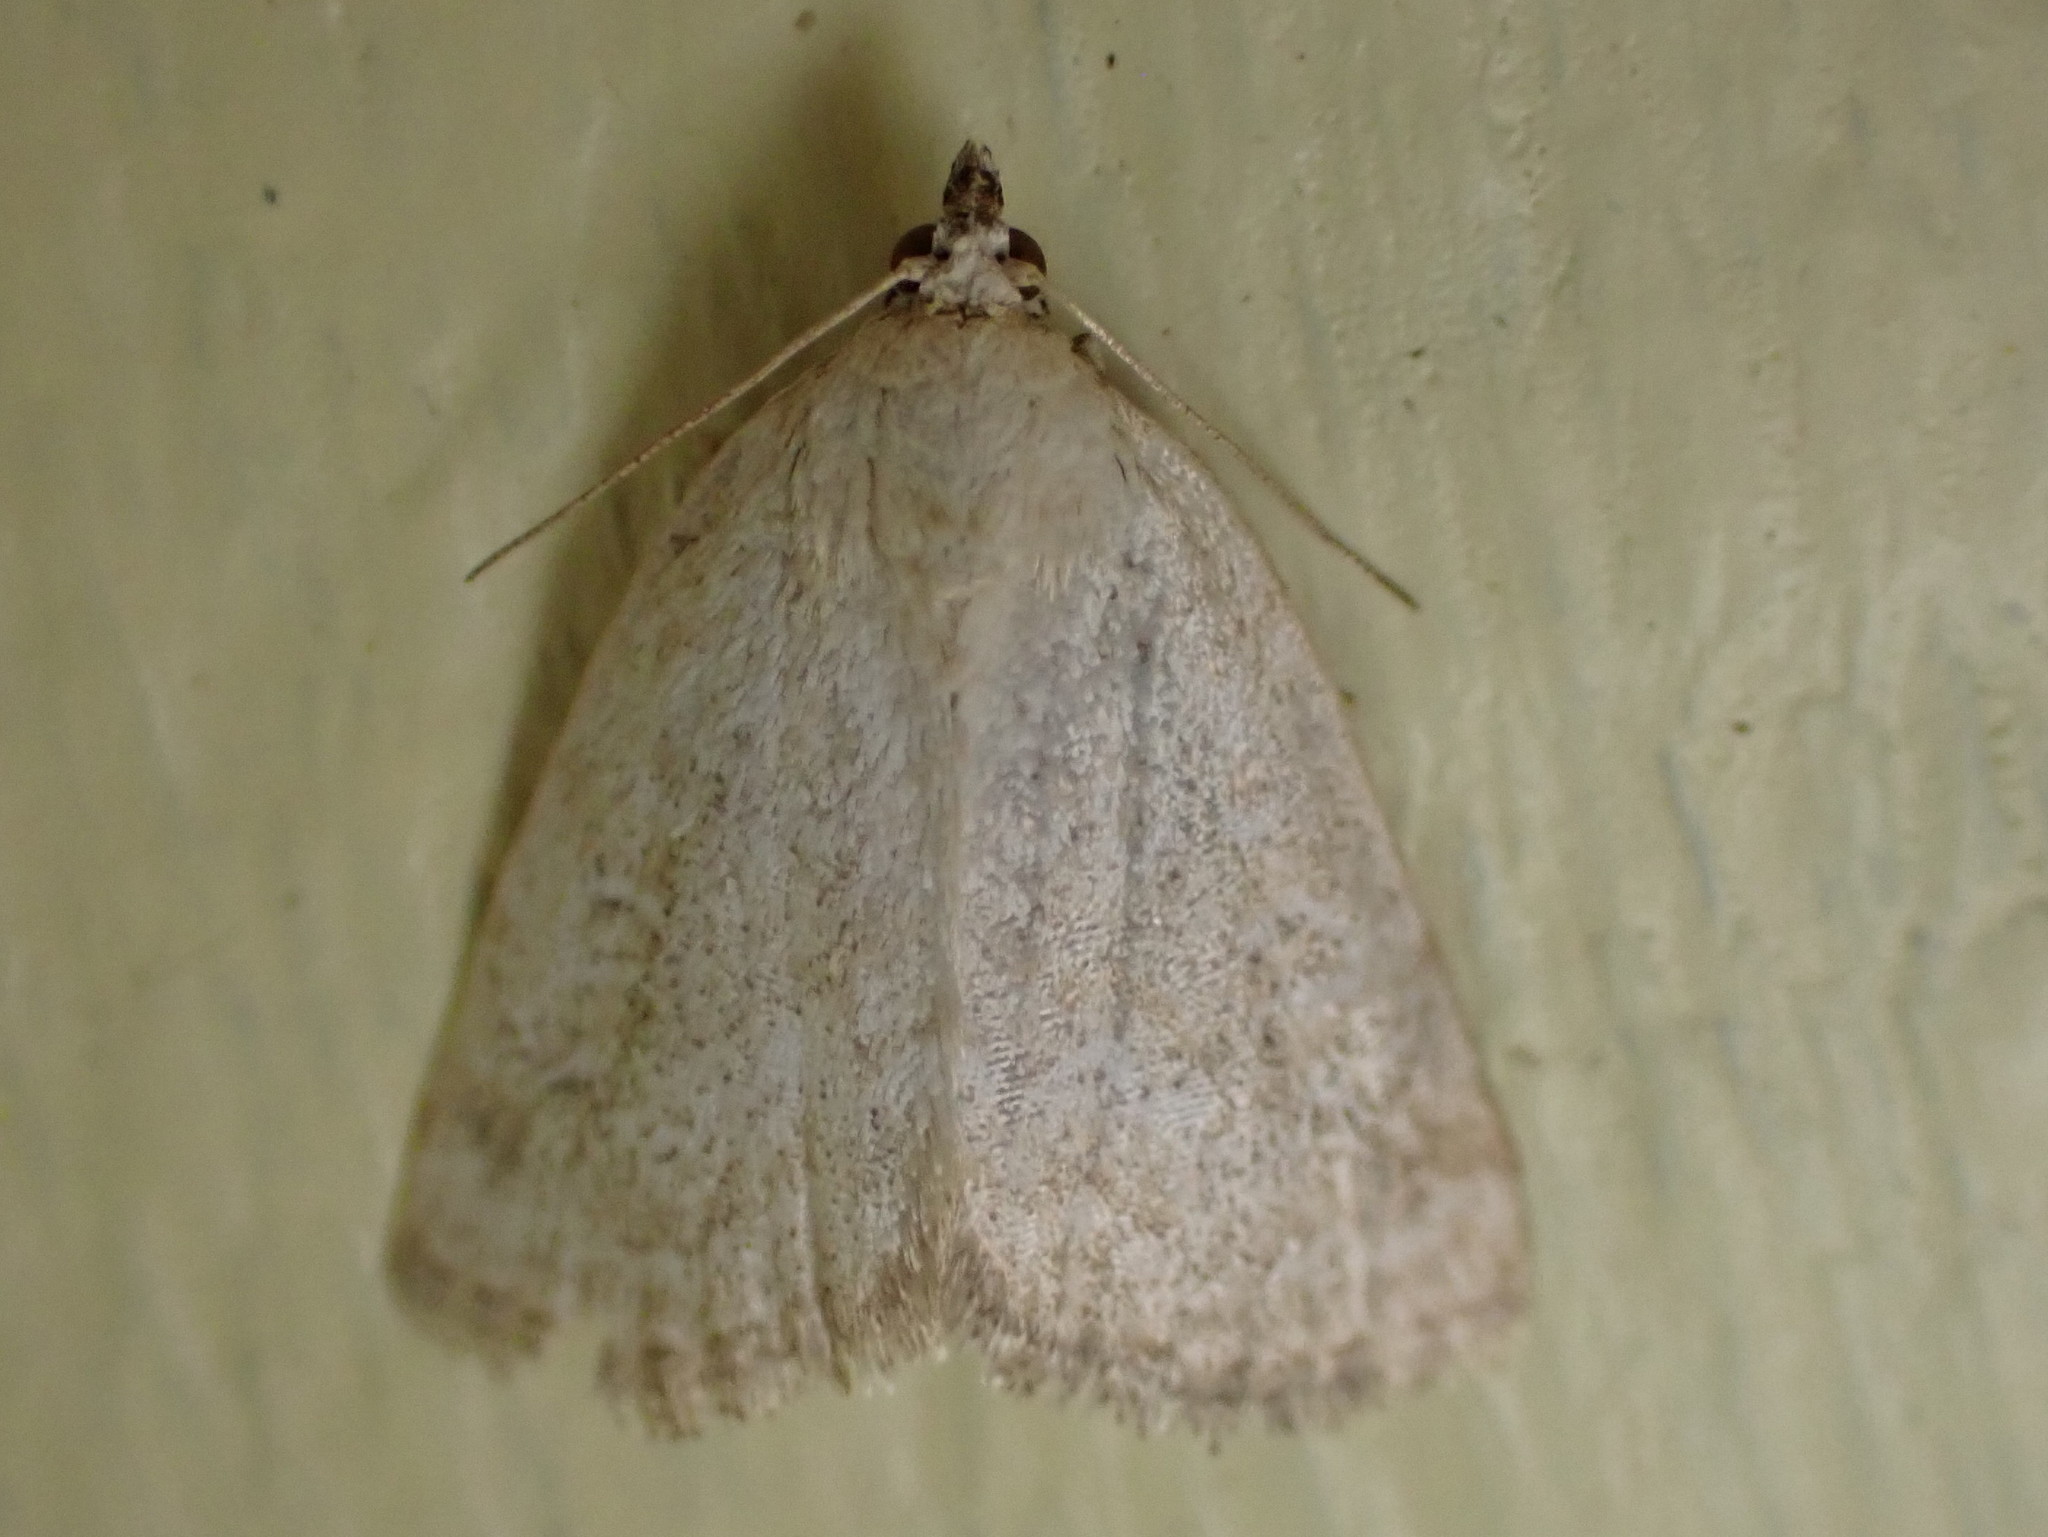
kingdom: Animalia
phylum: Arthropoda
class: Insecta
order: Lepidoptera
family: Noctuidae
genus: Protodeltote
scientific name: Protodeltote albidula
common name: Pale glyph
